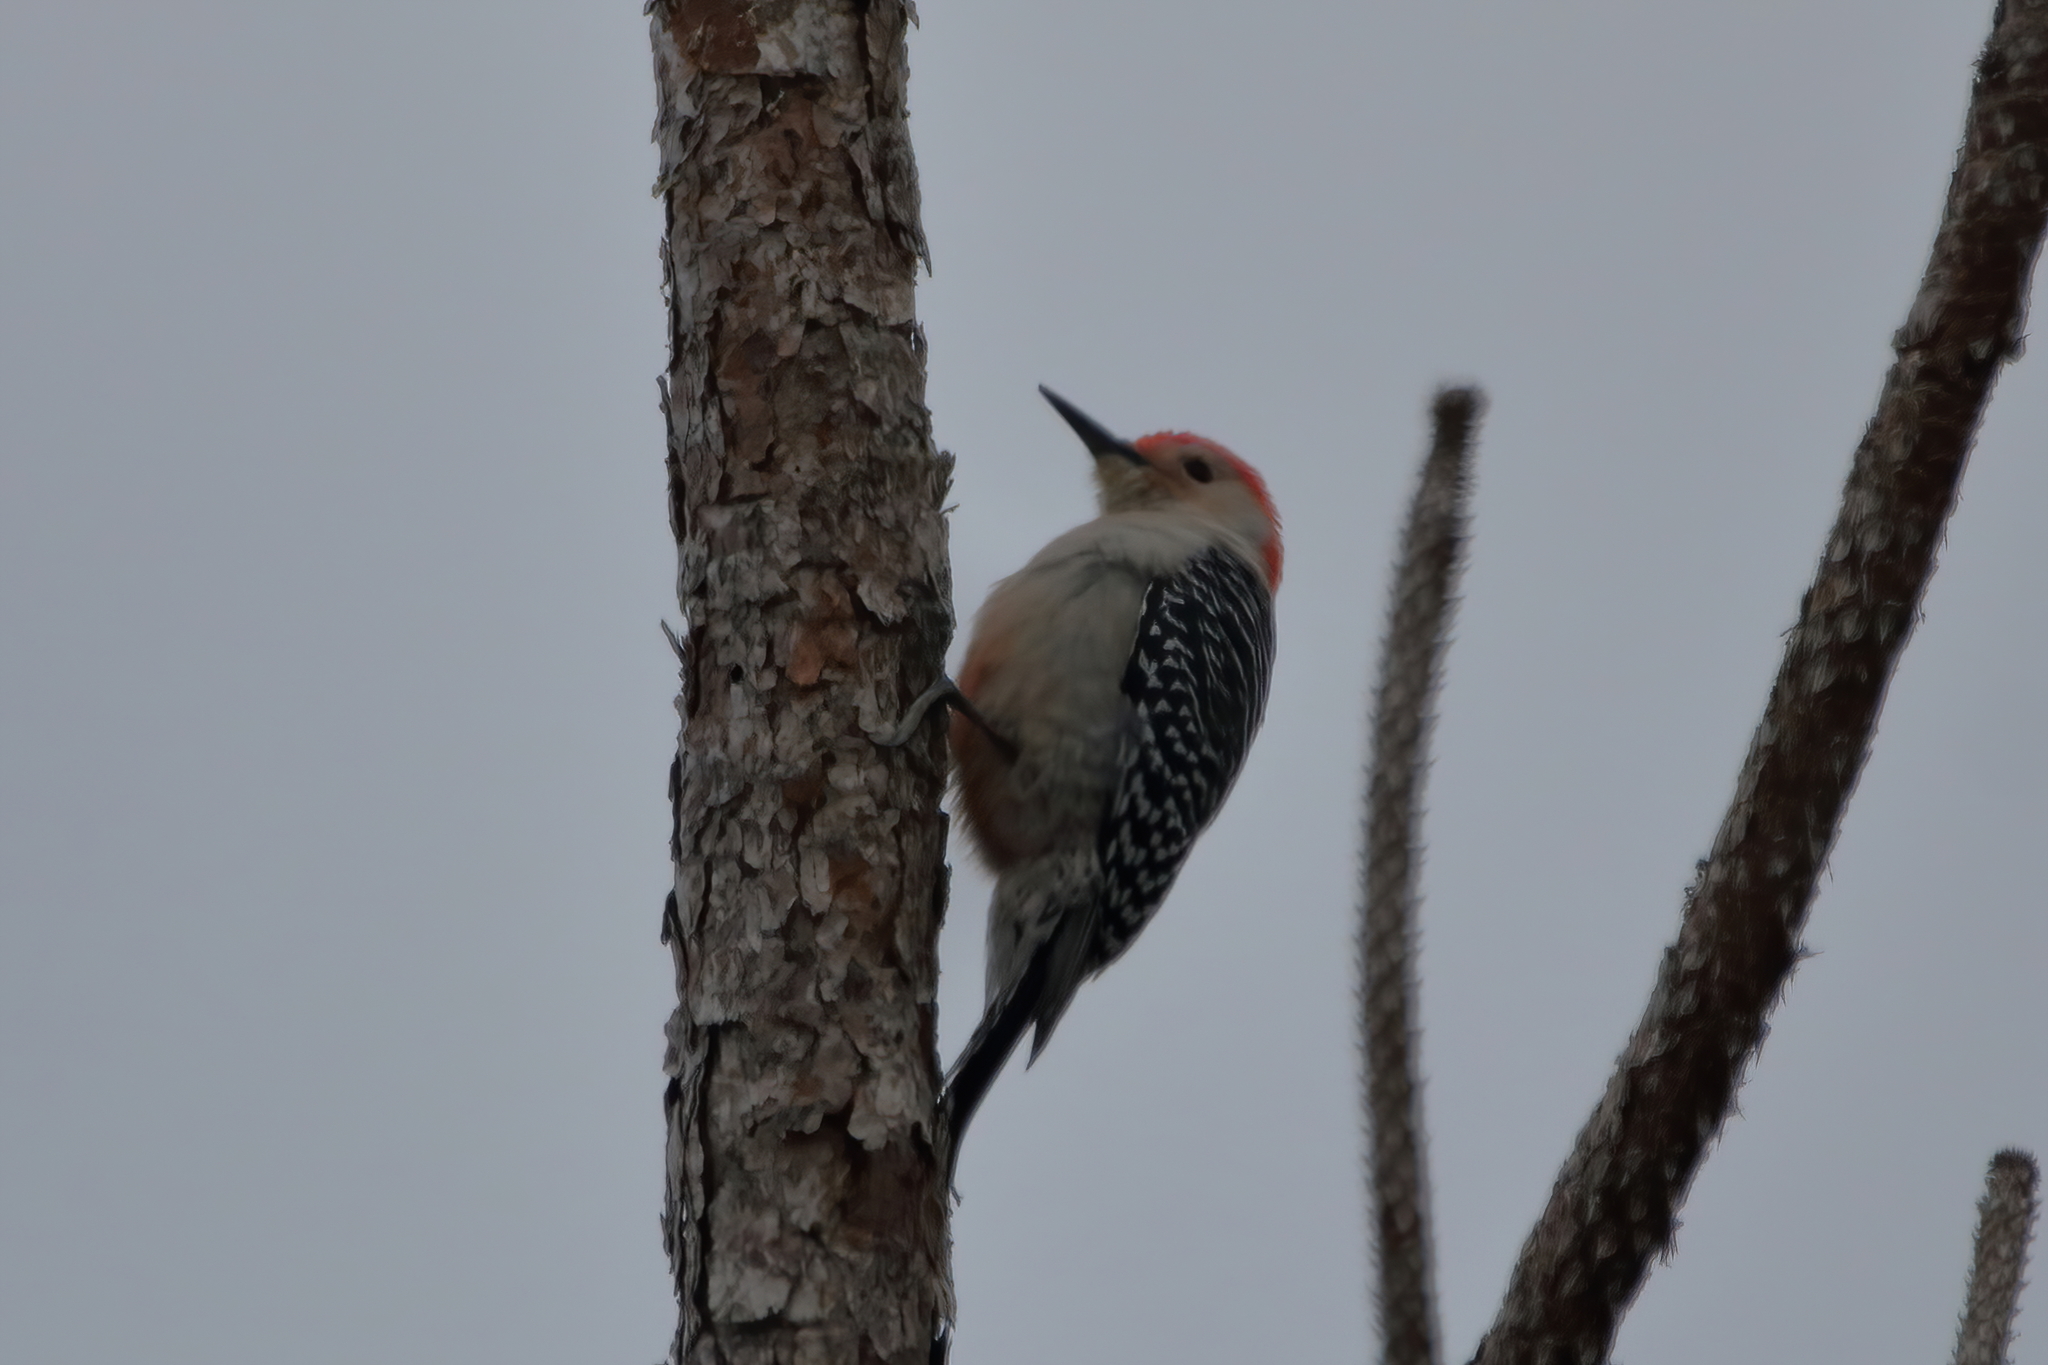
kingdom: Animalia
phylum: Chordata
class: Aves
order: Piciformes
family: Picidae
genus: Melanerpes
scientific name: Melanerpes carolinus
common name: Red-bellied woodpecker
